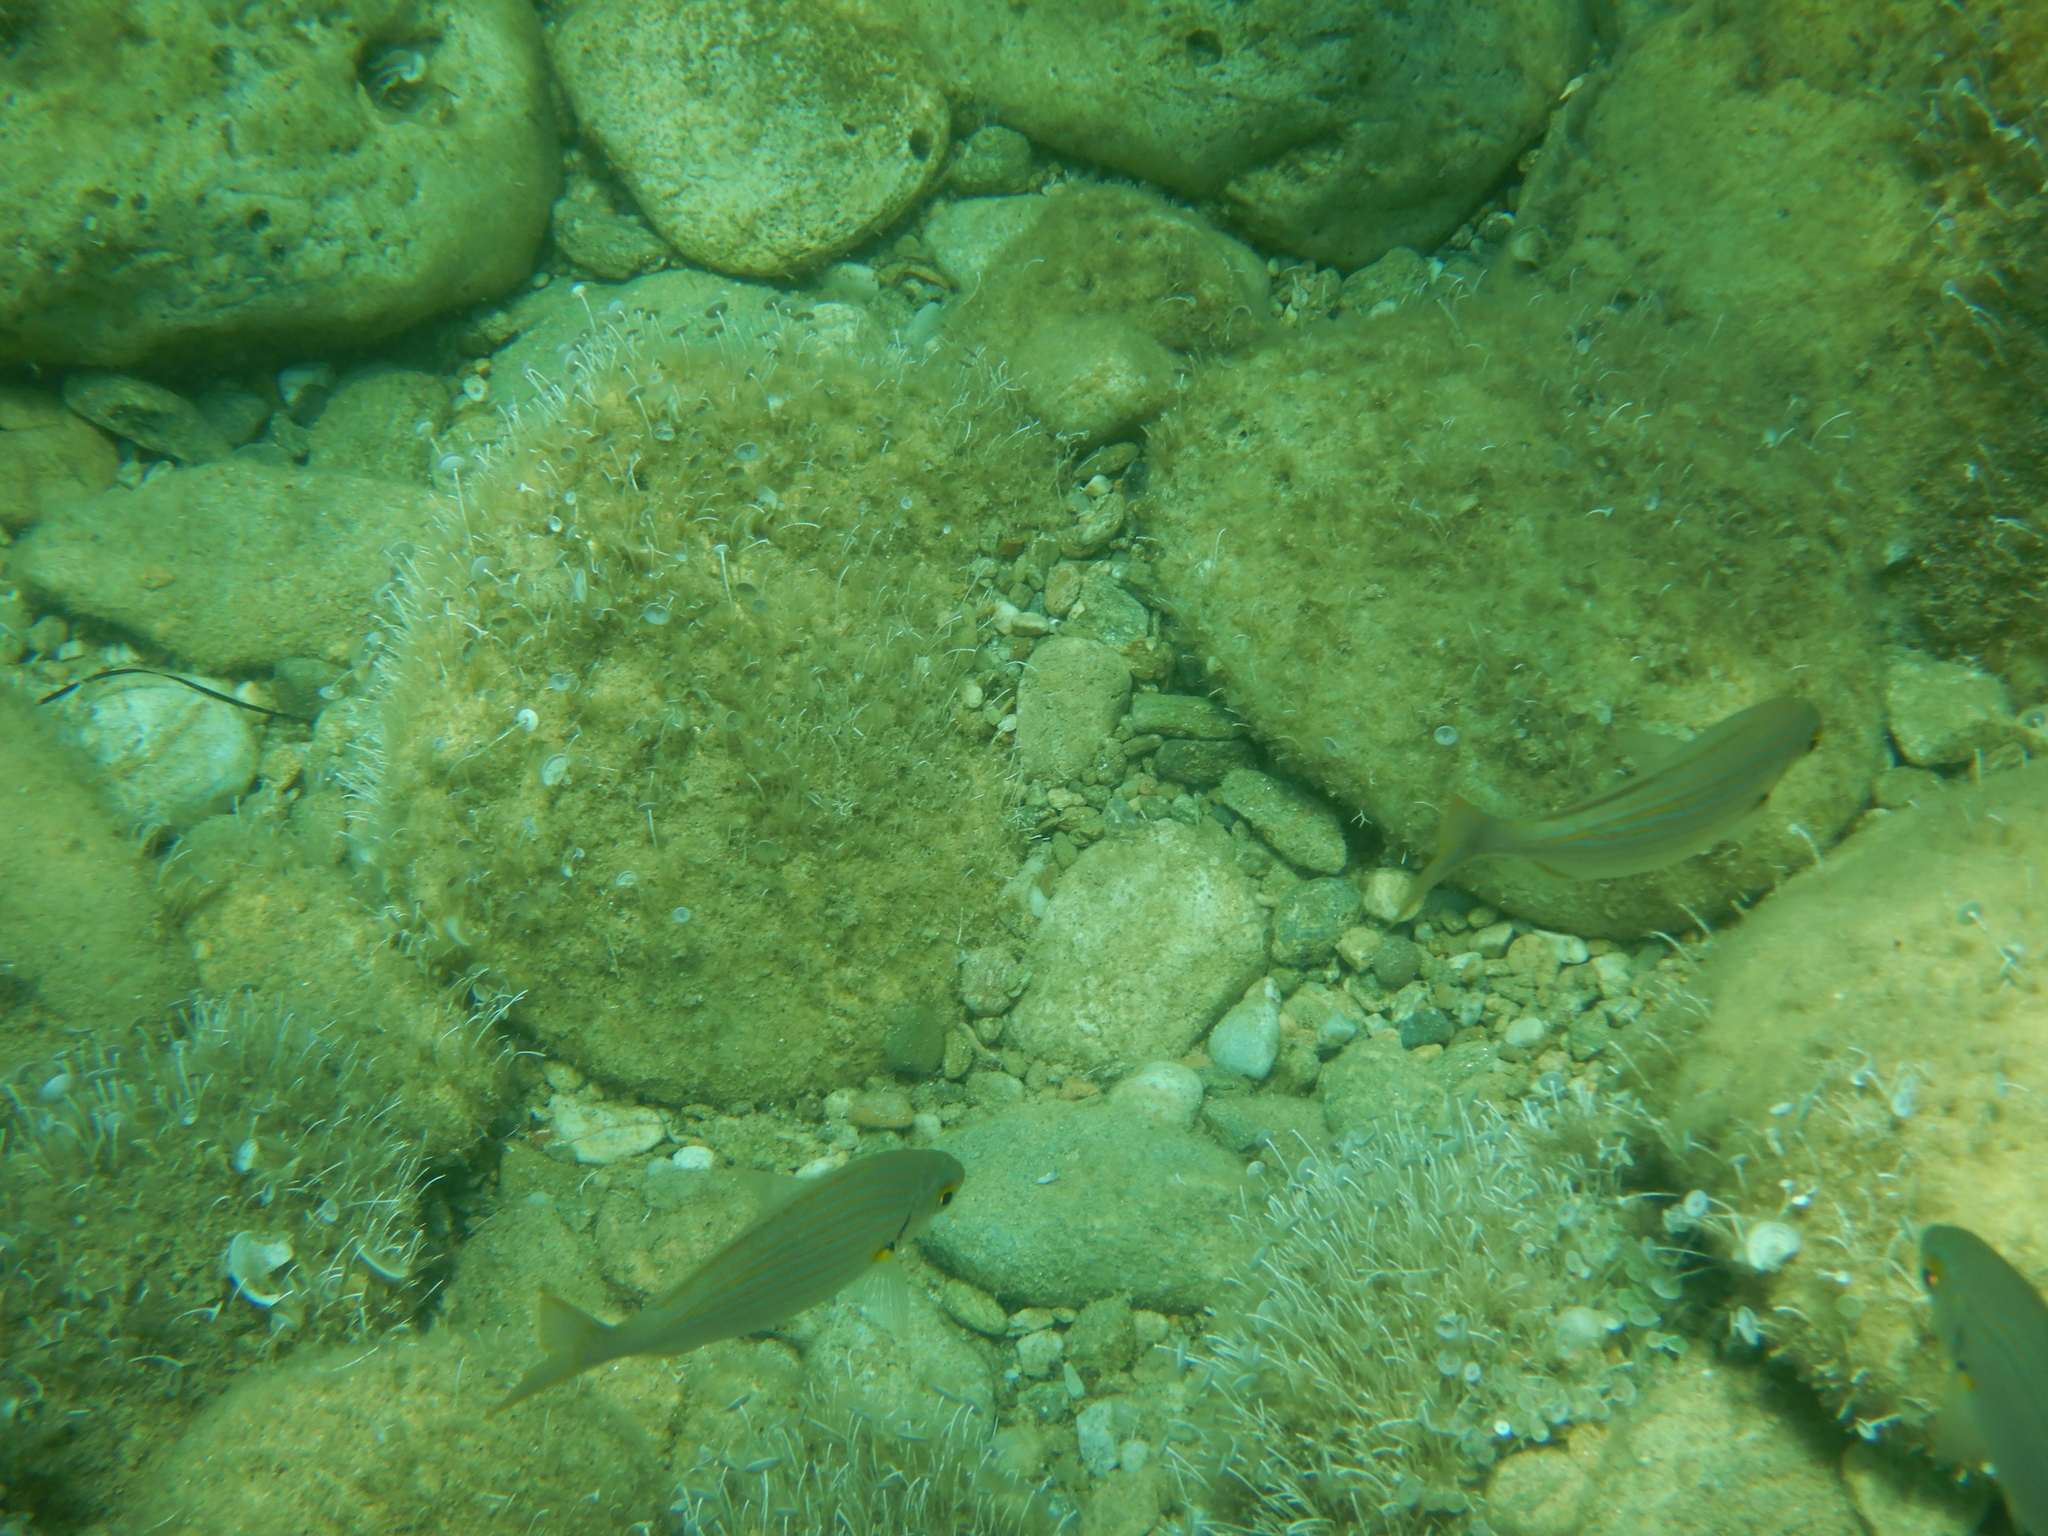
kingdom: Animalia
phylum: Chordata
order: Perciformes
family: Sparidae
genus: Sarpa
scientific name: Sarpa salpa
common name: Salema
